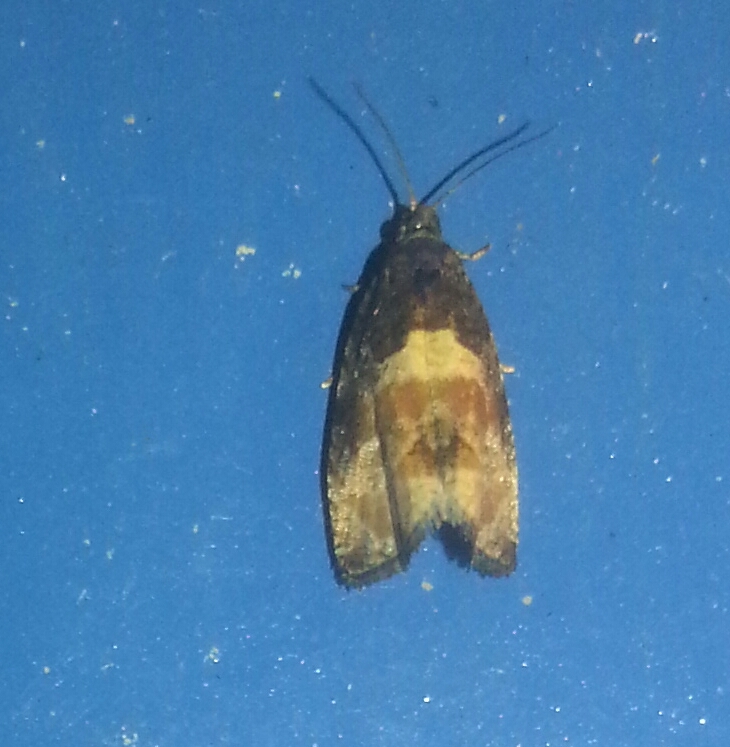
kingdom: Animalia
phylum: Arthropoda
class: Insecta
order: Lepidoptera
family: Tortricidae
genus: Hulda
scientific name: Hulda impudens
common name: Impudent hulda moth
